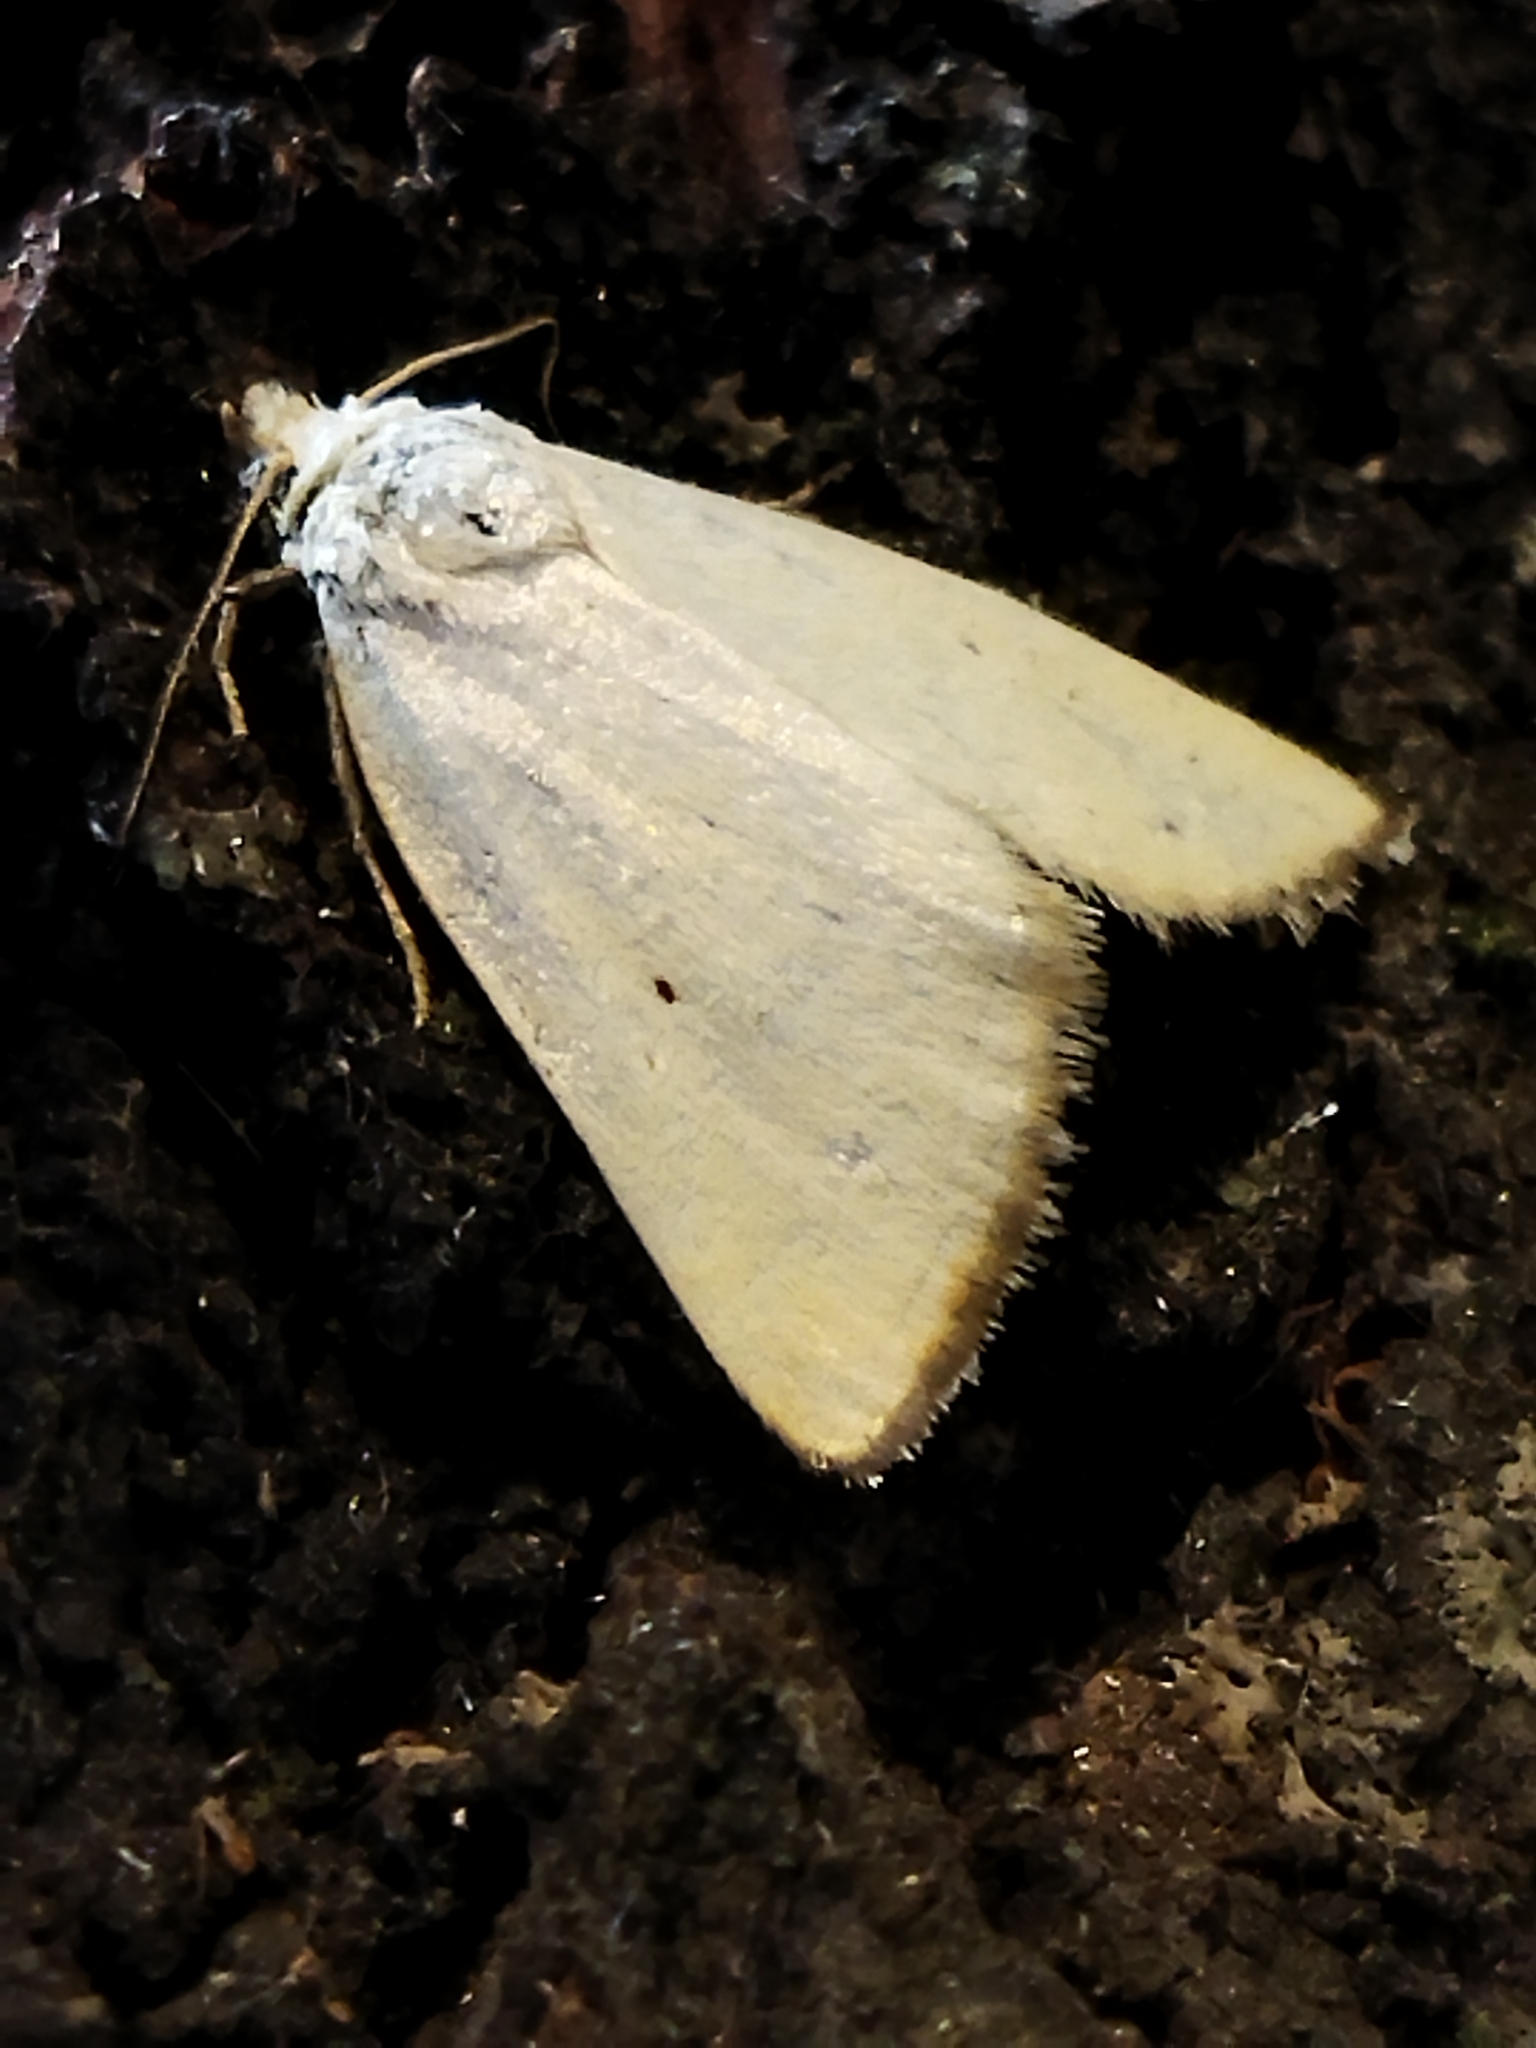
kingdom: Animalia
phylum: Arthropoda
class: Insecta
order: Lepidoptera
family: Noctuidae
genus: Aegle
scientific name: Aegle kaekeritziana
